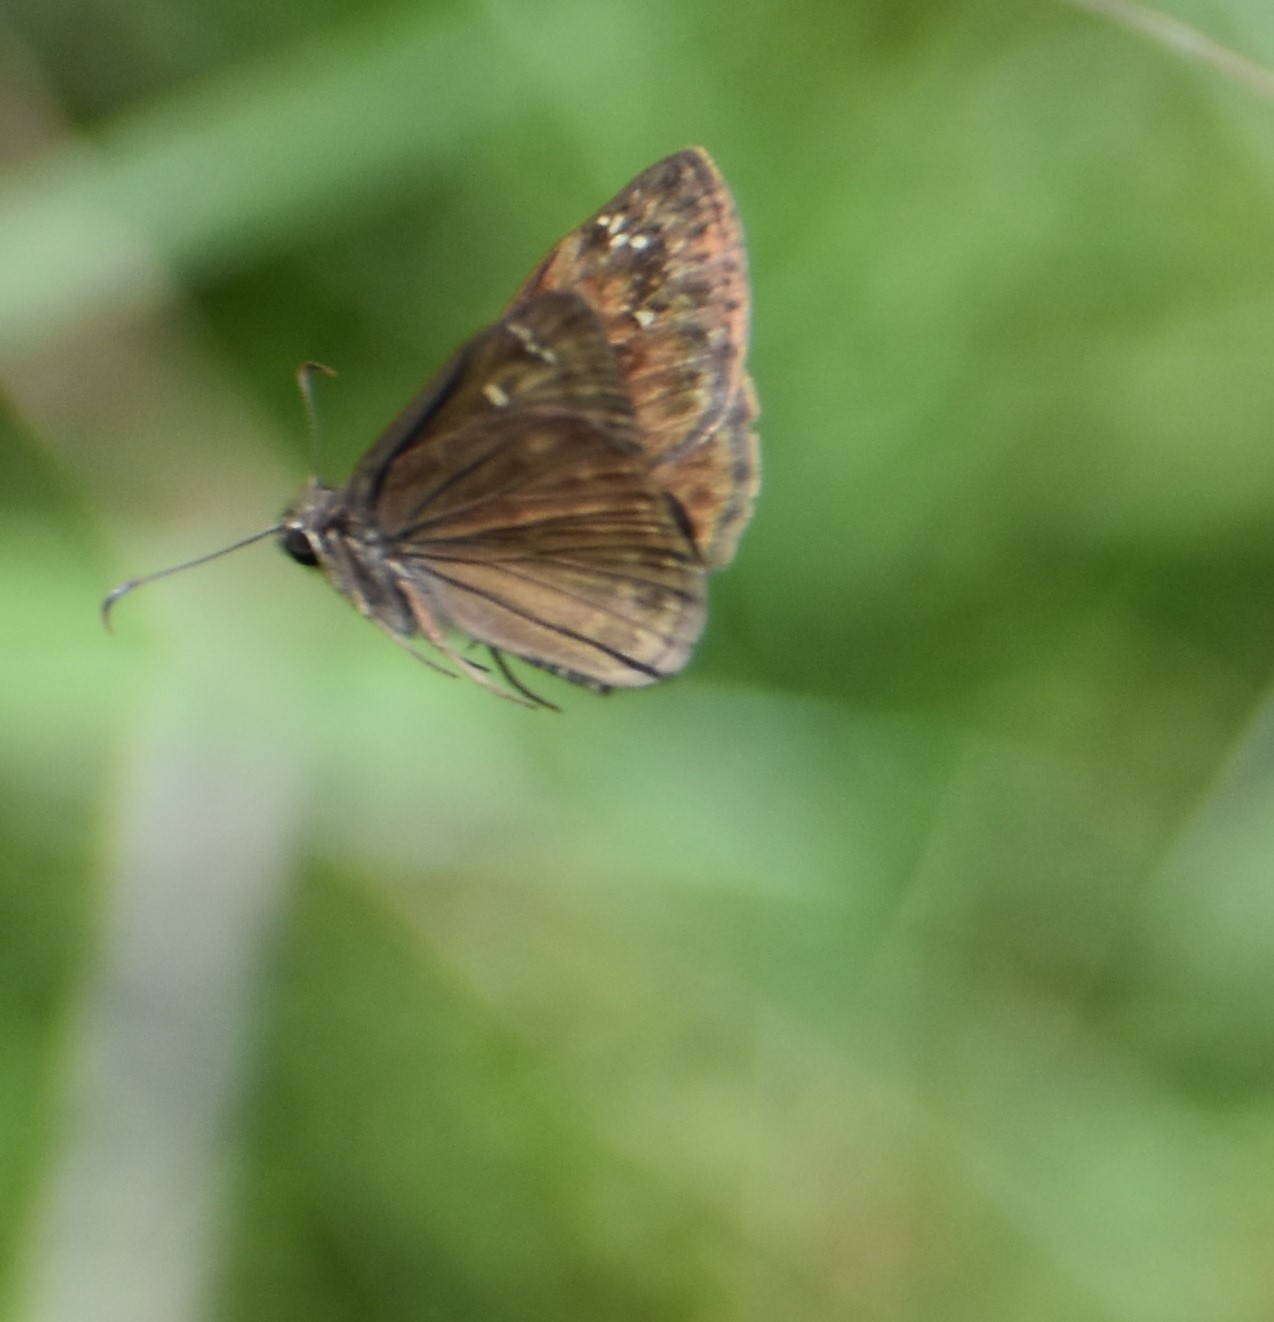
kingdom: Animalia
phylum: Arthropoda
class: Insecta
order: Lepidoptera
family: Hesperiidae
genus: Erynnis
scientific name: Erynnis horatius
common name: Horace's duskywing
